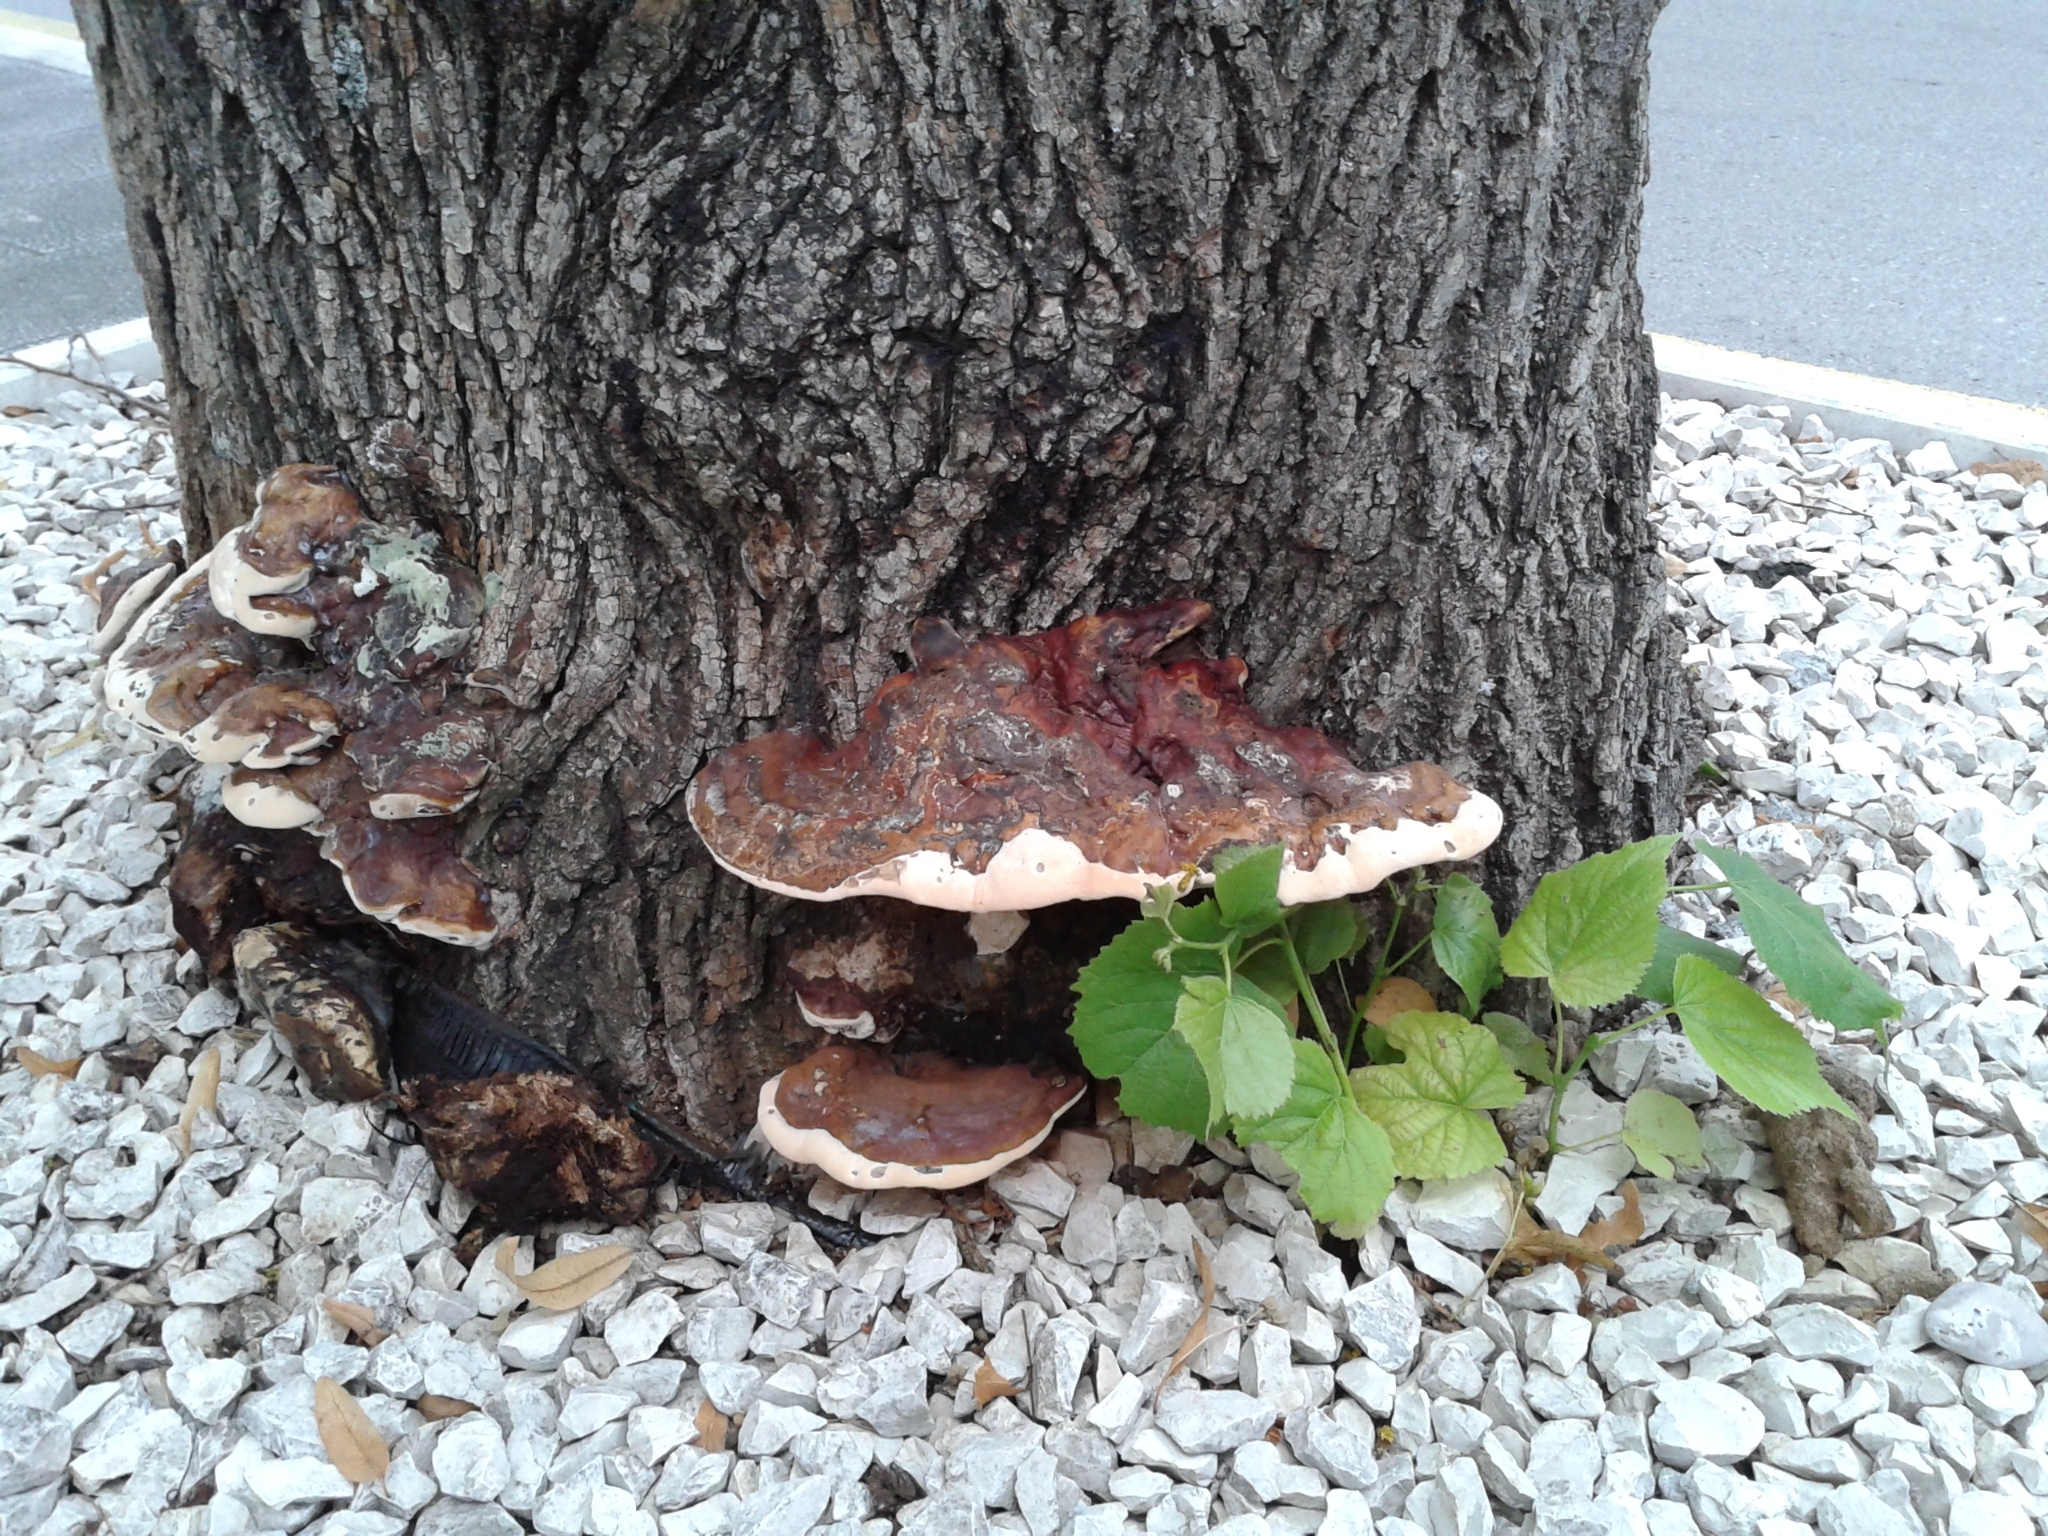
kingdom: Fungi
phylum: Basidiomycota
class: Agaricomycetes
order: Polyporales
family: Polyporaceae
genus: Ganoderma
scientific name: Ganoderma resinaceum
